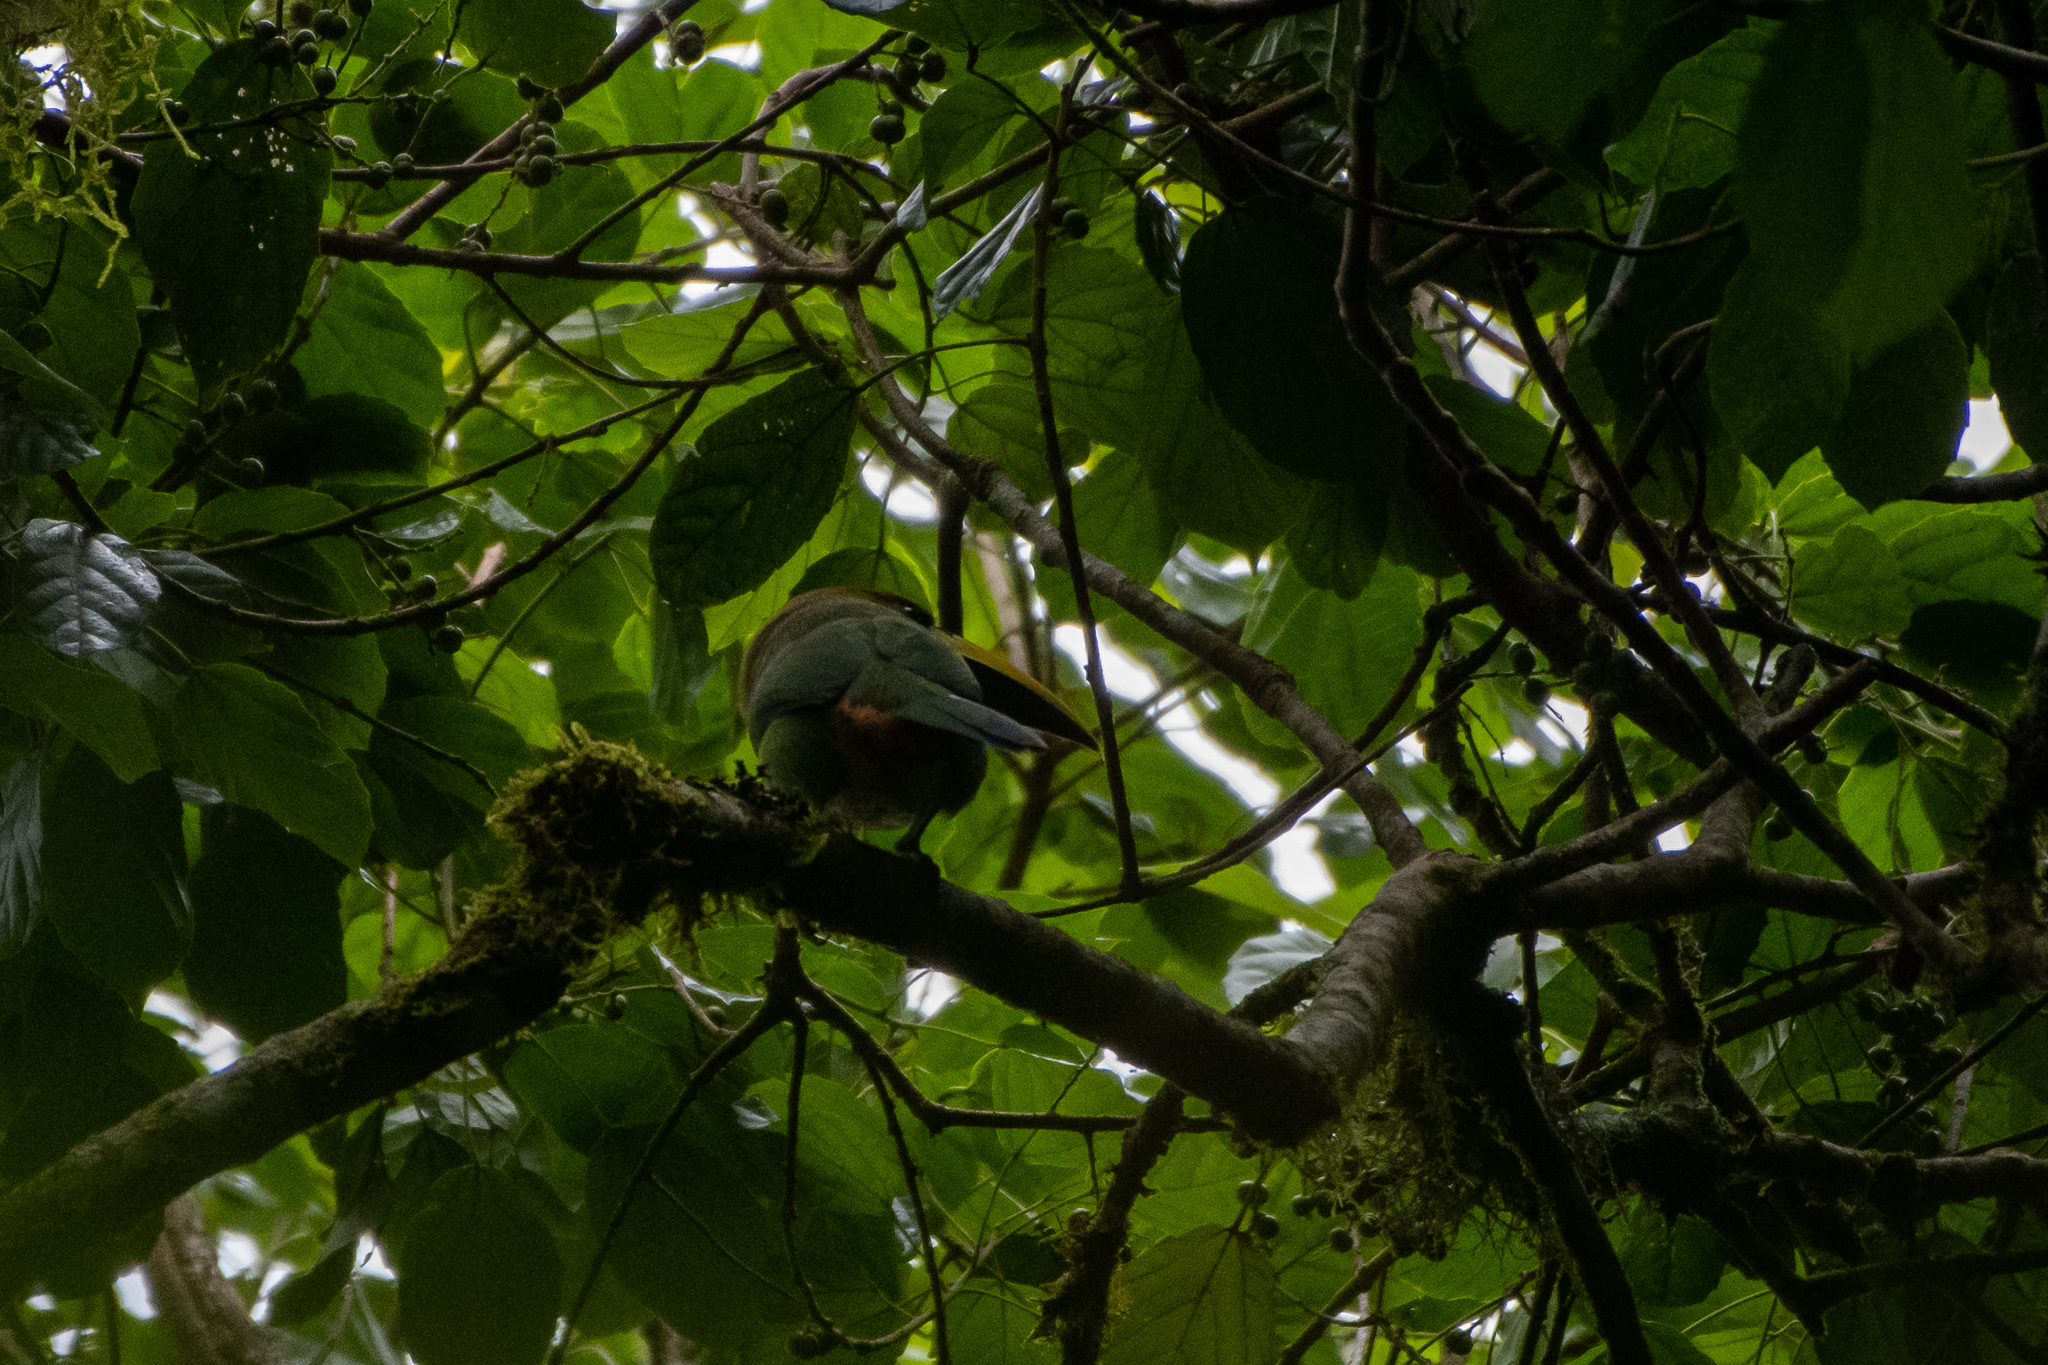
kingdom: Animalia
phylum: Chordata
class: Aves
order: Piciformes
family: Ramphastidae
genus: Aulacorhynchus
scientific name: Aulacorhynchus prasinus
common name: Emerald toucanet
